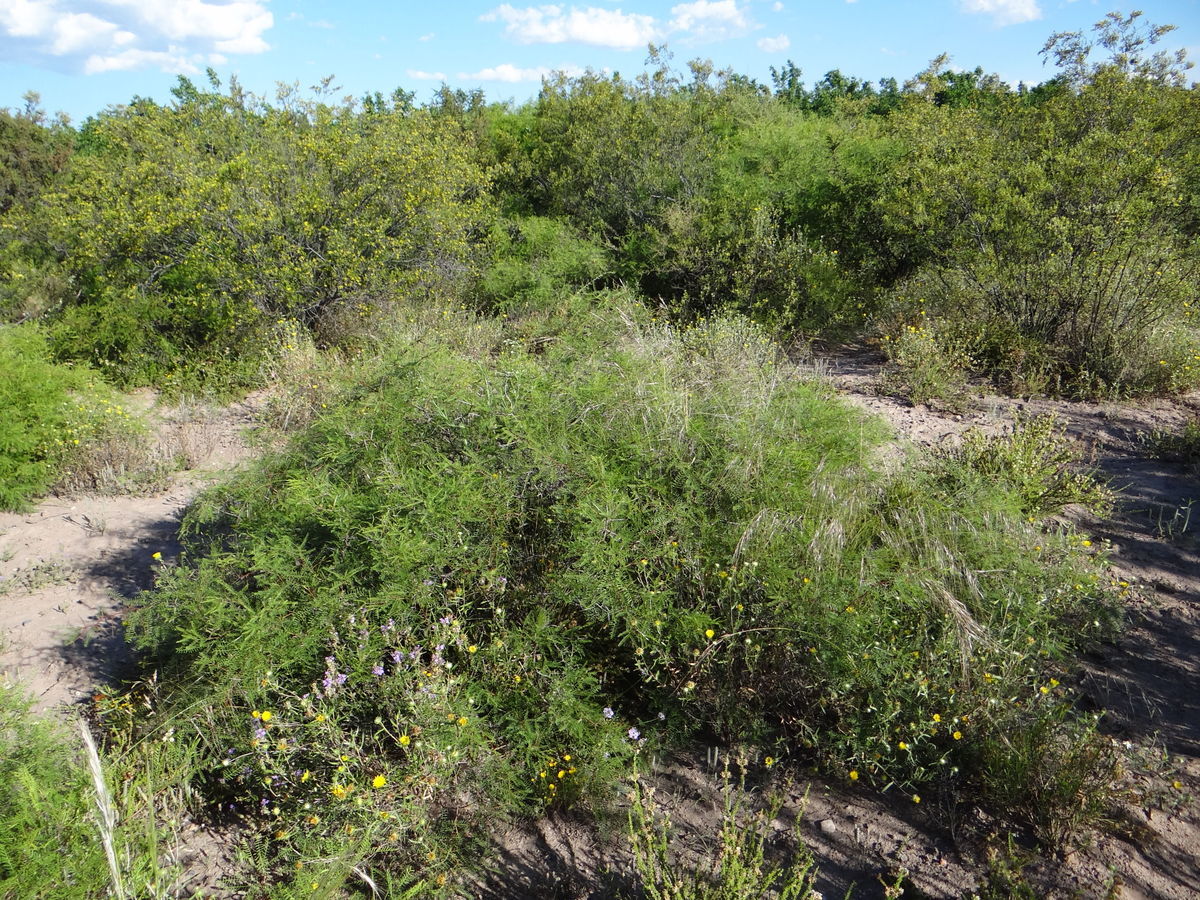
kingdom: Plantae
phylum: Tracheophyta
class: Magnoliopsida
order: Fabales
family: Fabaceae
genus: Prosopis
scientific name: Prosopis flexuosa
